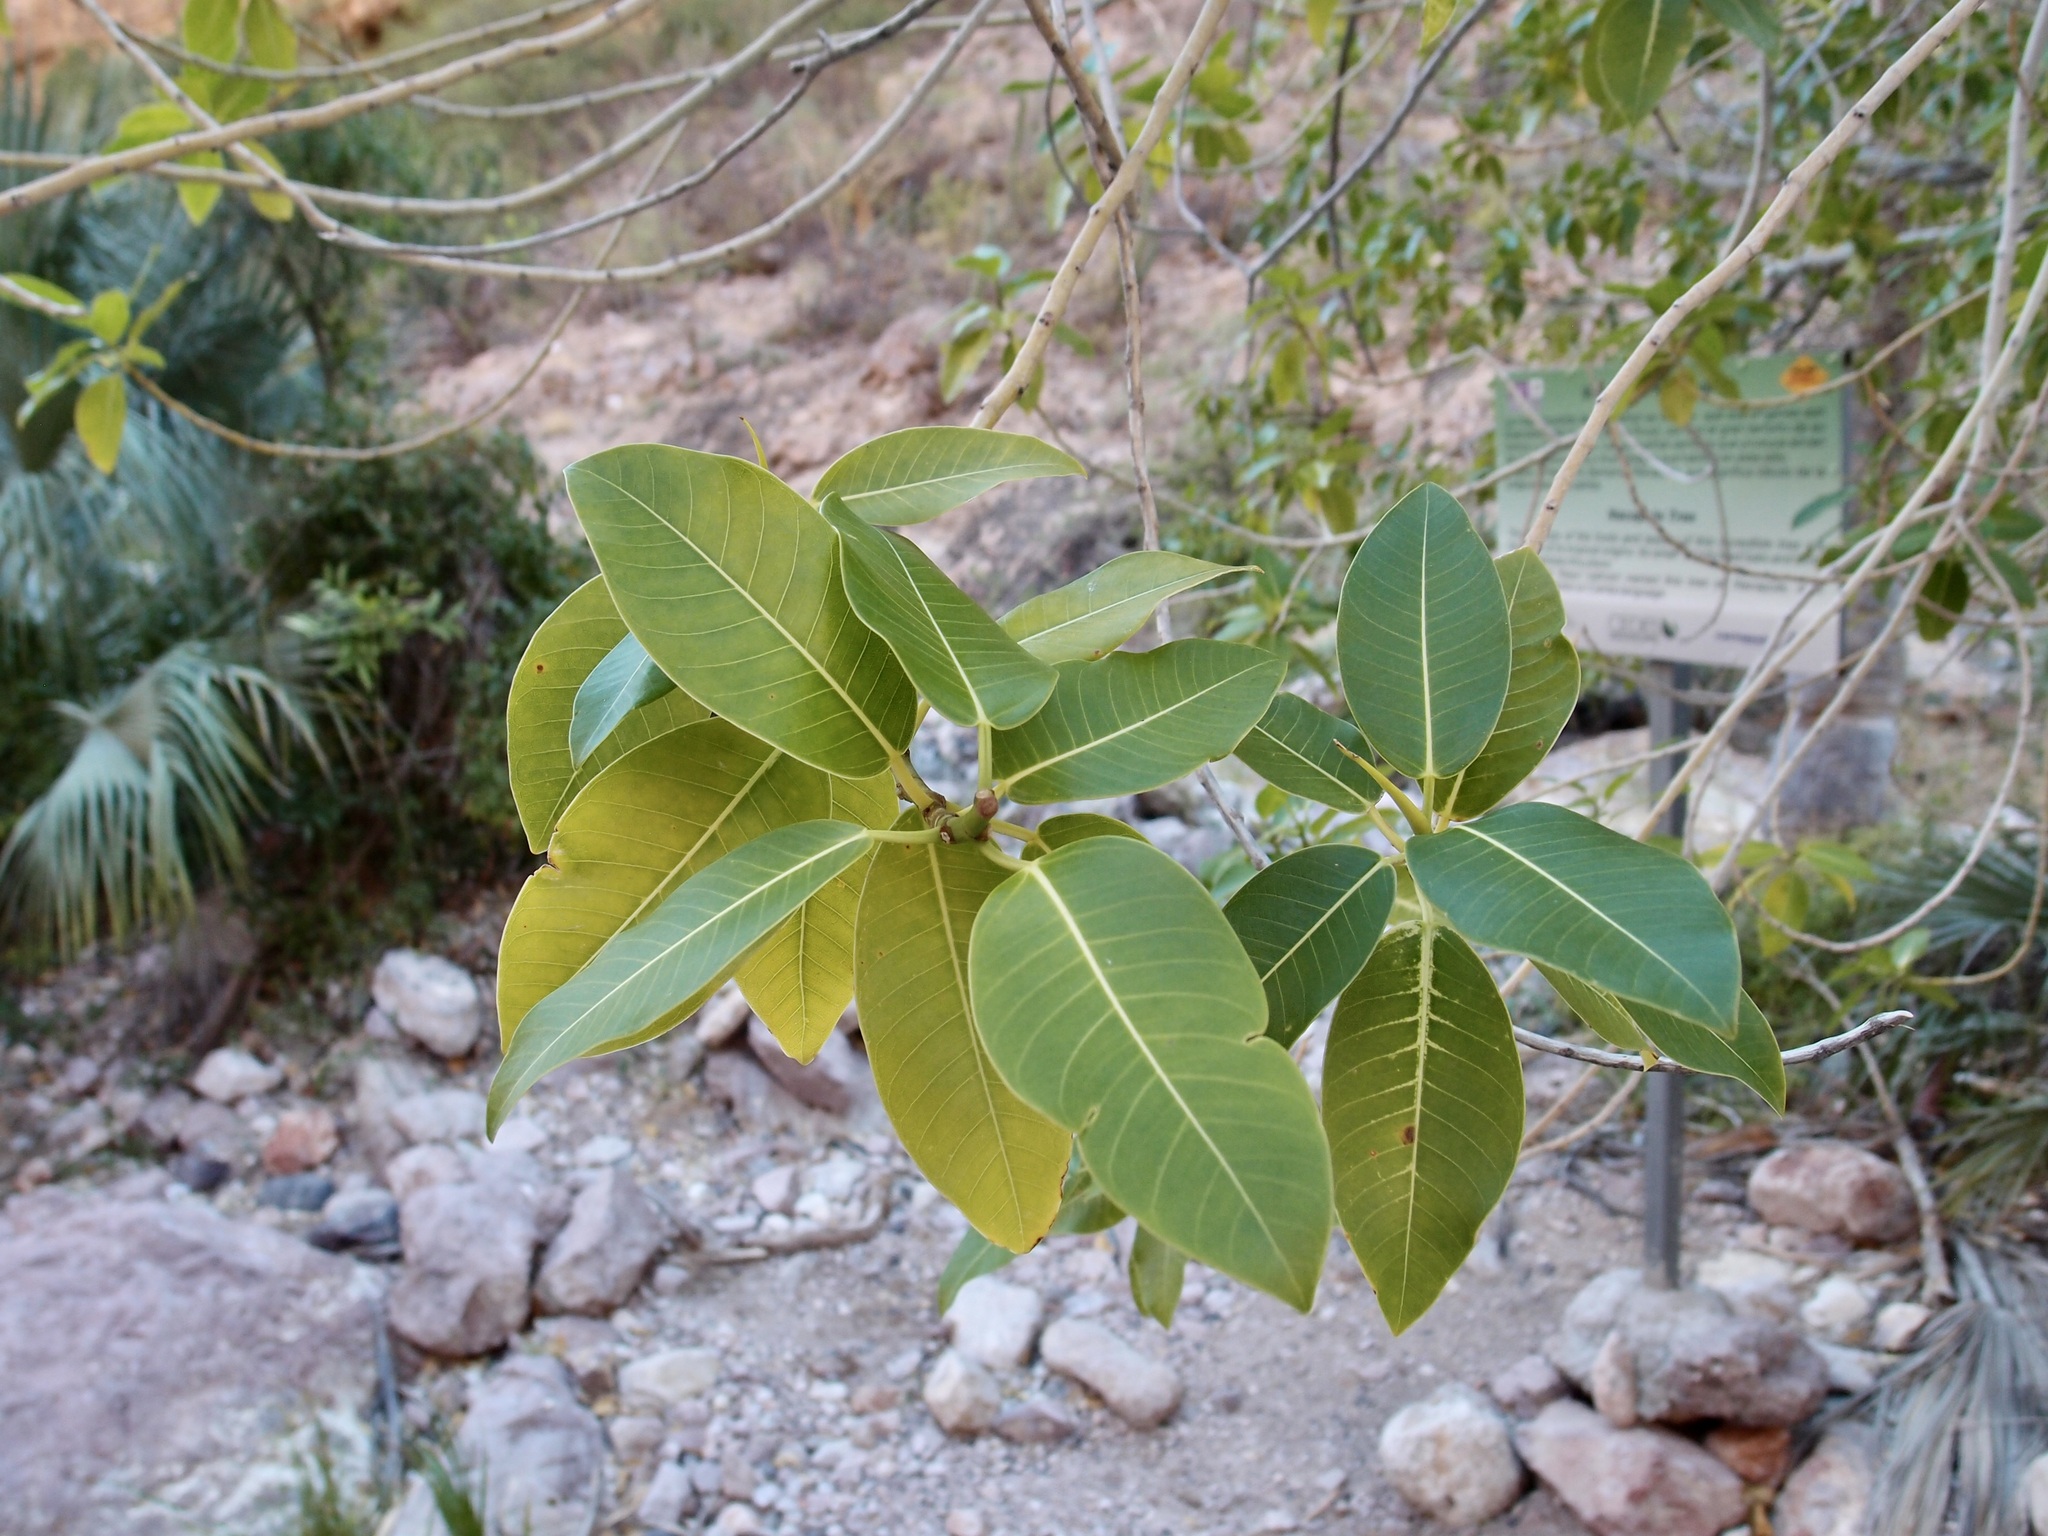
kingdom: Plantae
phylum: Tracheophyta
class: Magnoliopsida
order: Rosales
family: Moraceae
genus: Ficus
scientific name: Ficus insipida
